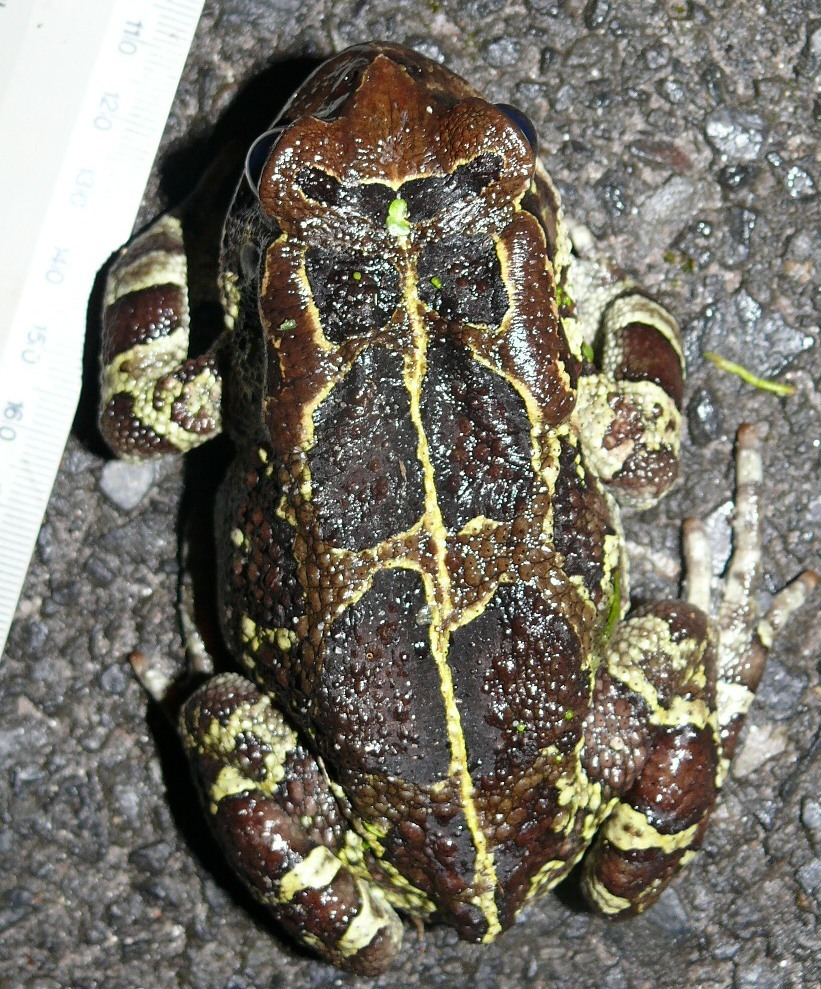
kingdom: Animalia
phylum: Chordata
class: Amphibia
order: Anura
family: Bufonidae
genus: Sclerophrys
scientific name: Sclerophrys pantherina
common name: Panther toad
